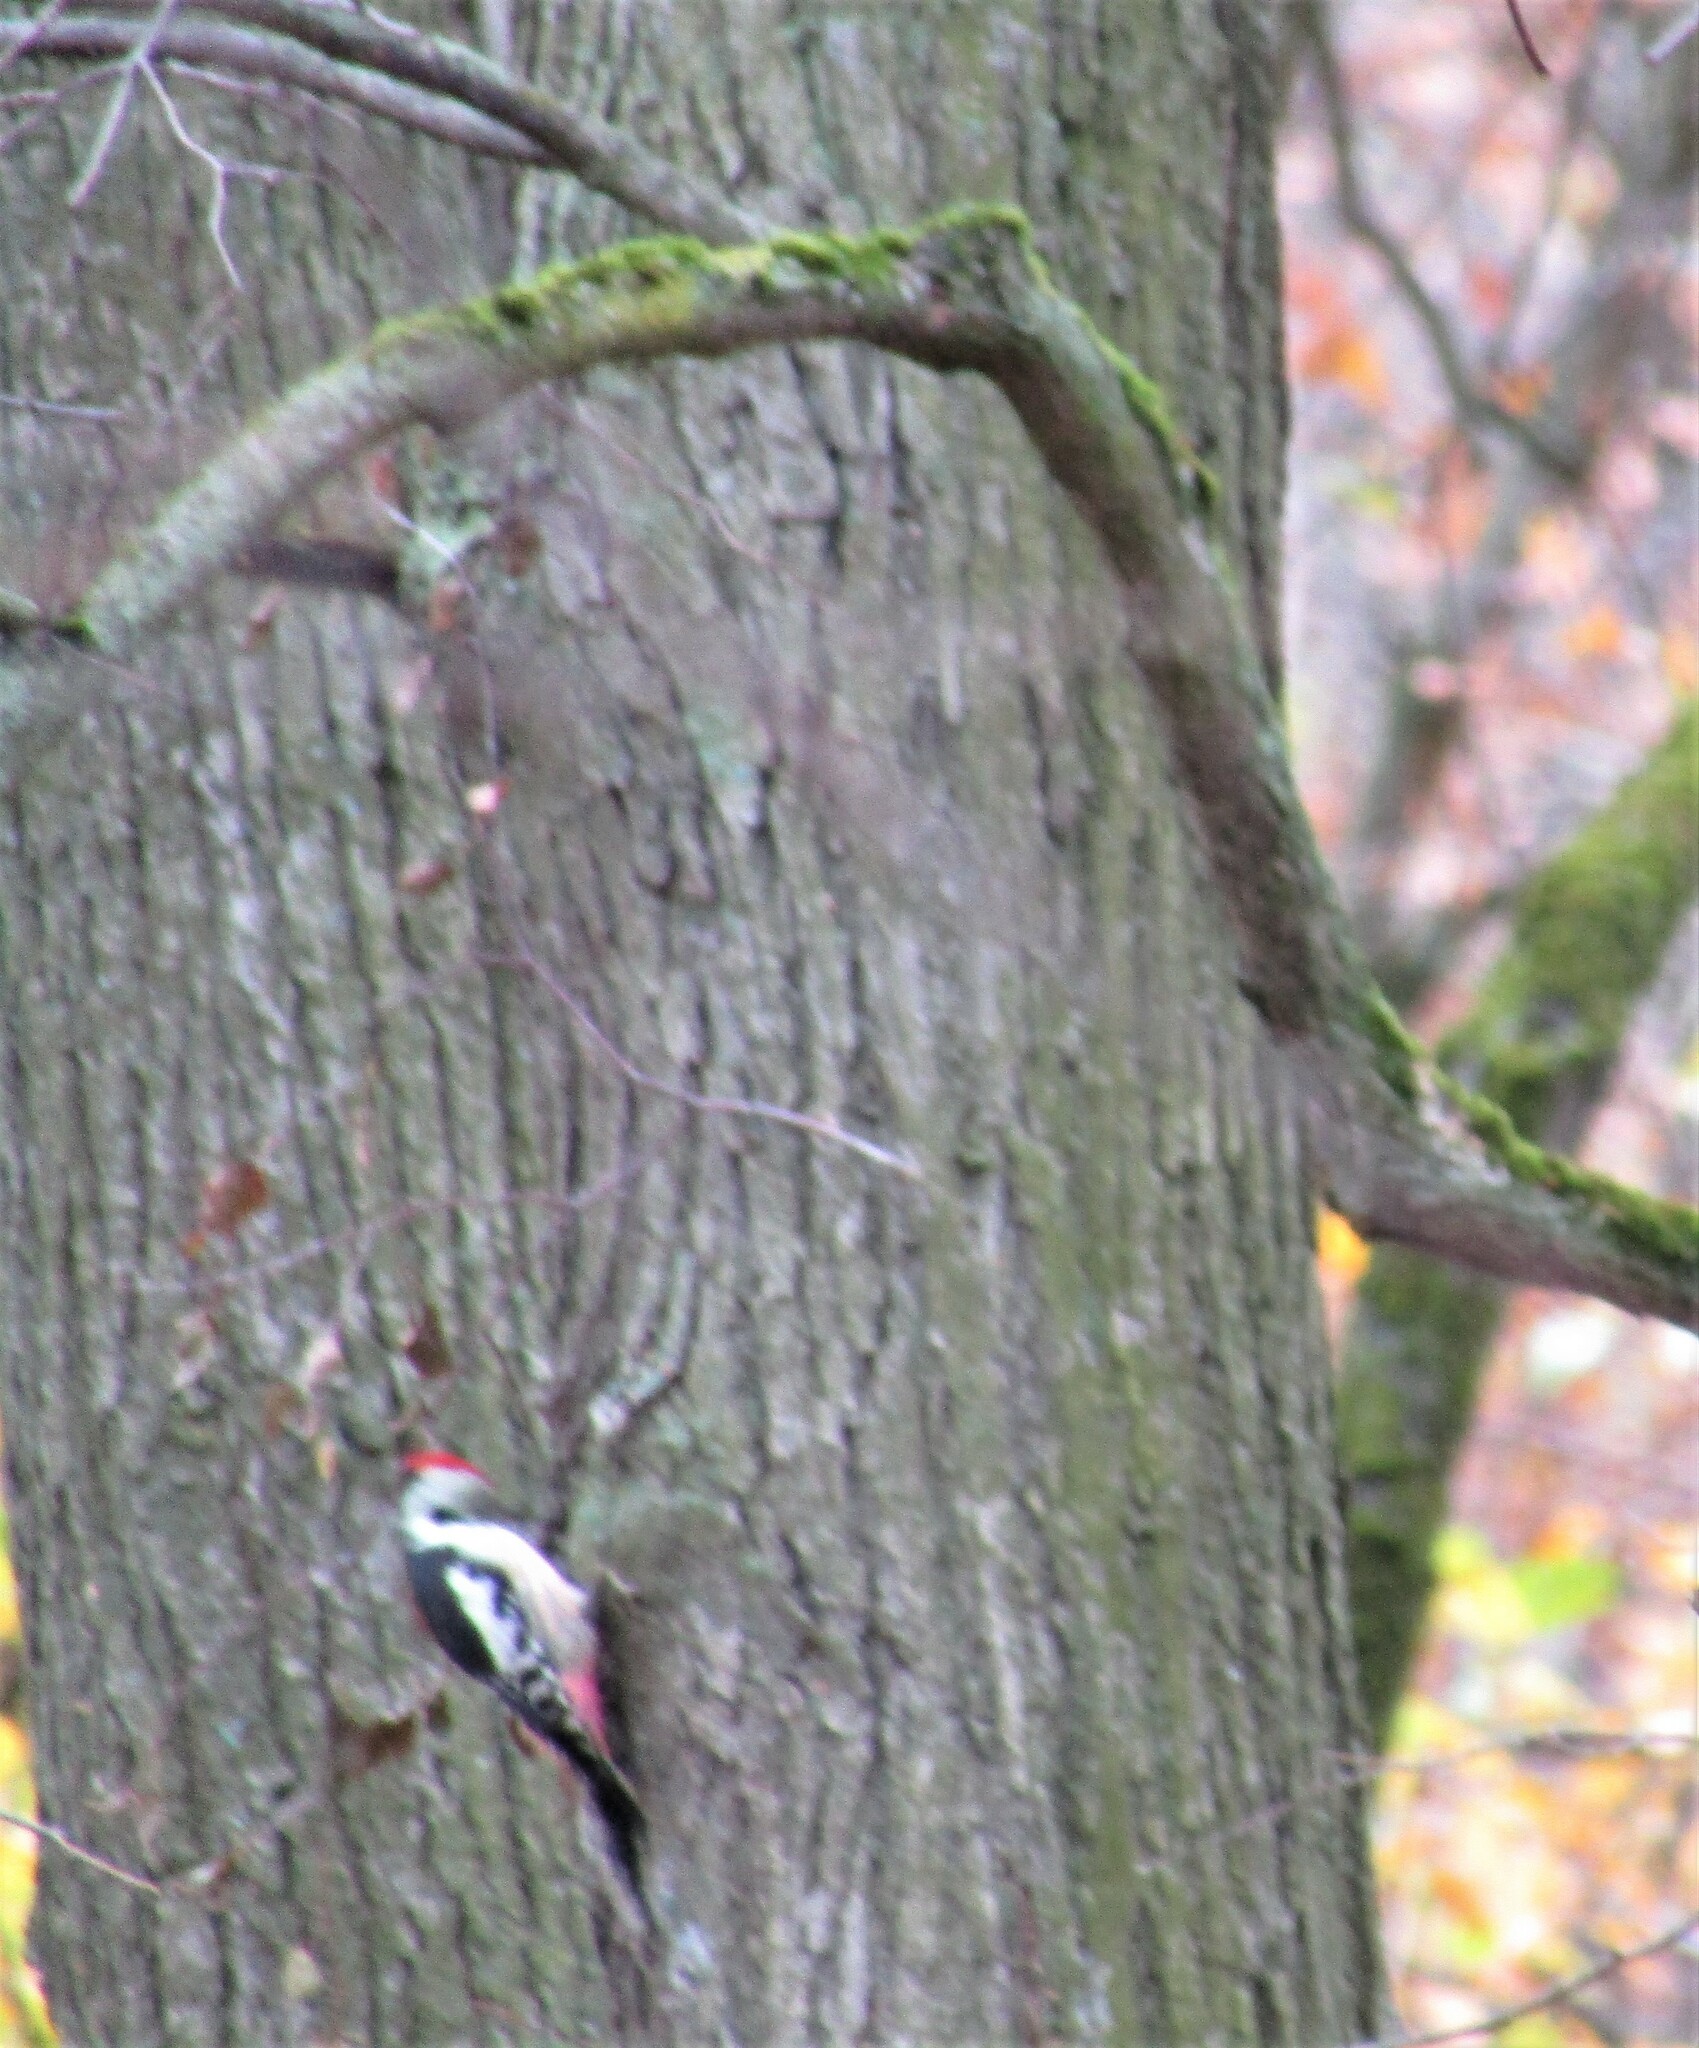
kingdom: Animalia
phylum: Chordata
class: Aves
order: Piciformes
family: Picidae
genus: Dendrocoptes
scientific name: Dendrocoptes medius
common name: Middle spotted woodpecker
